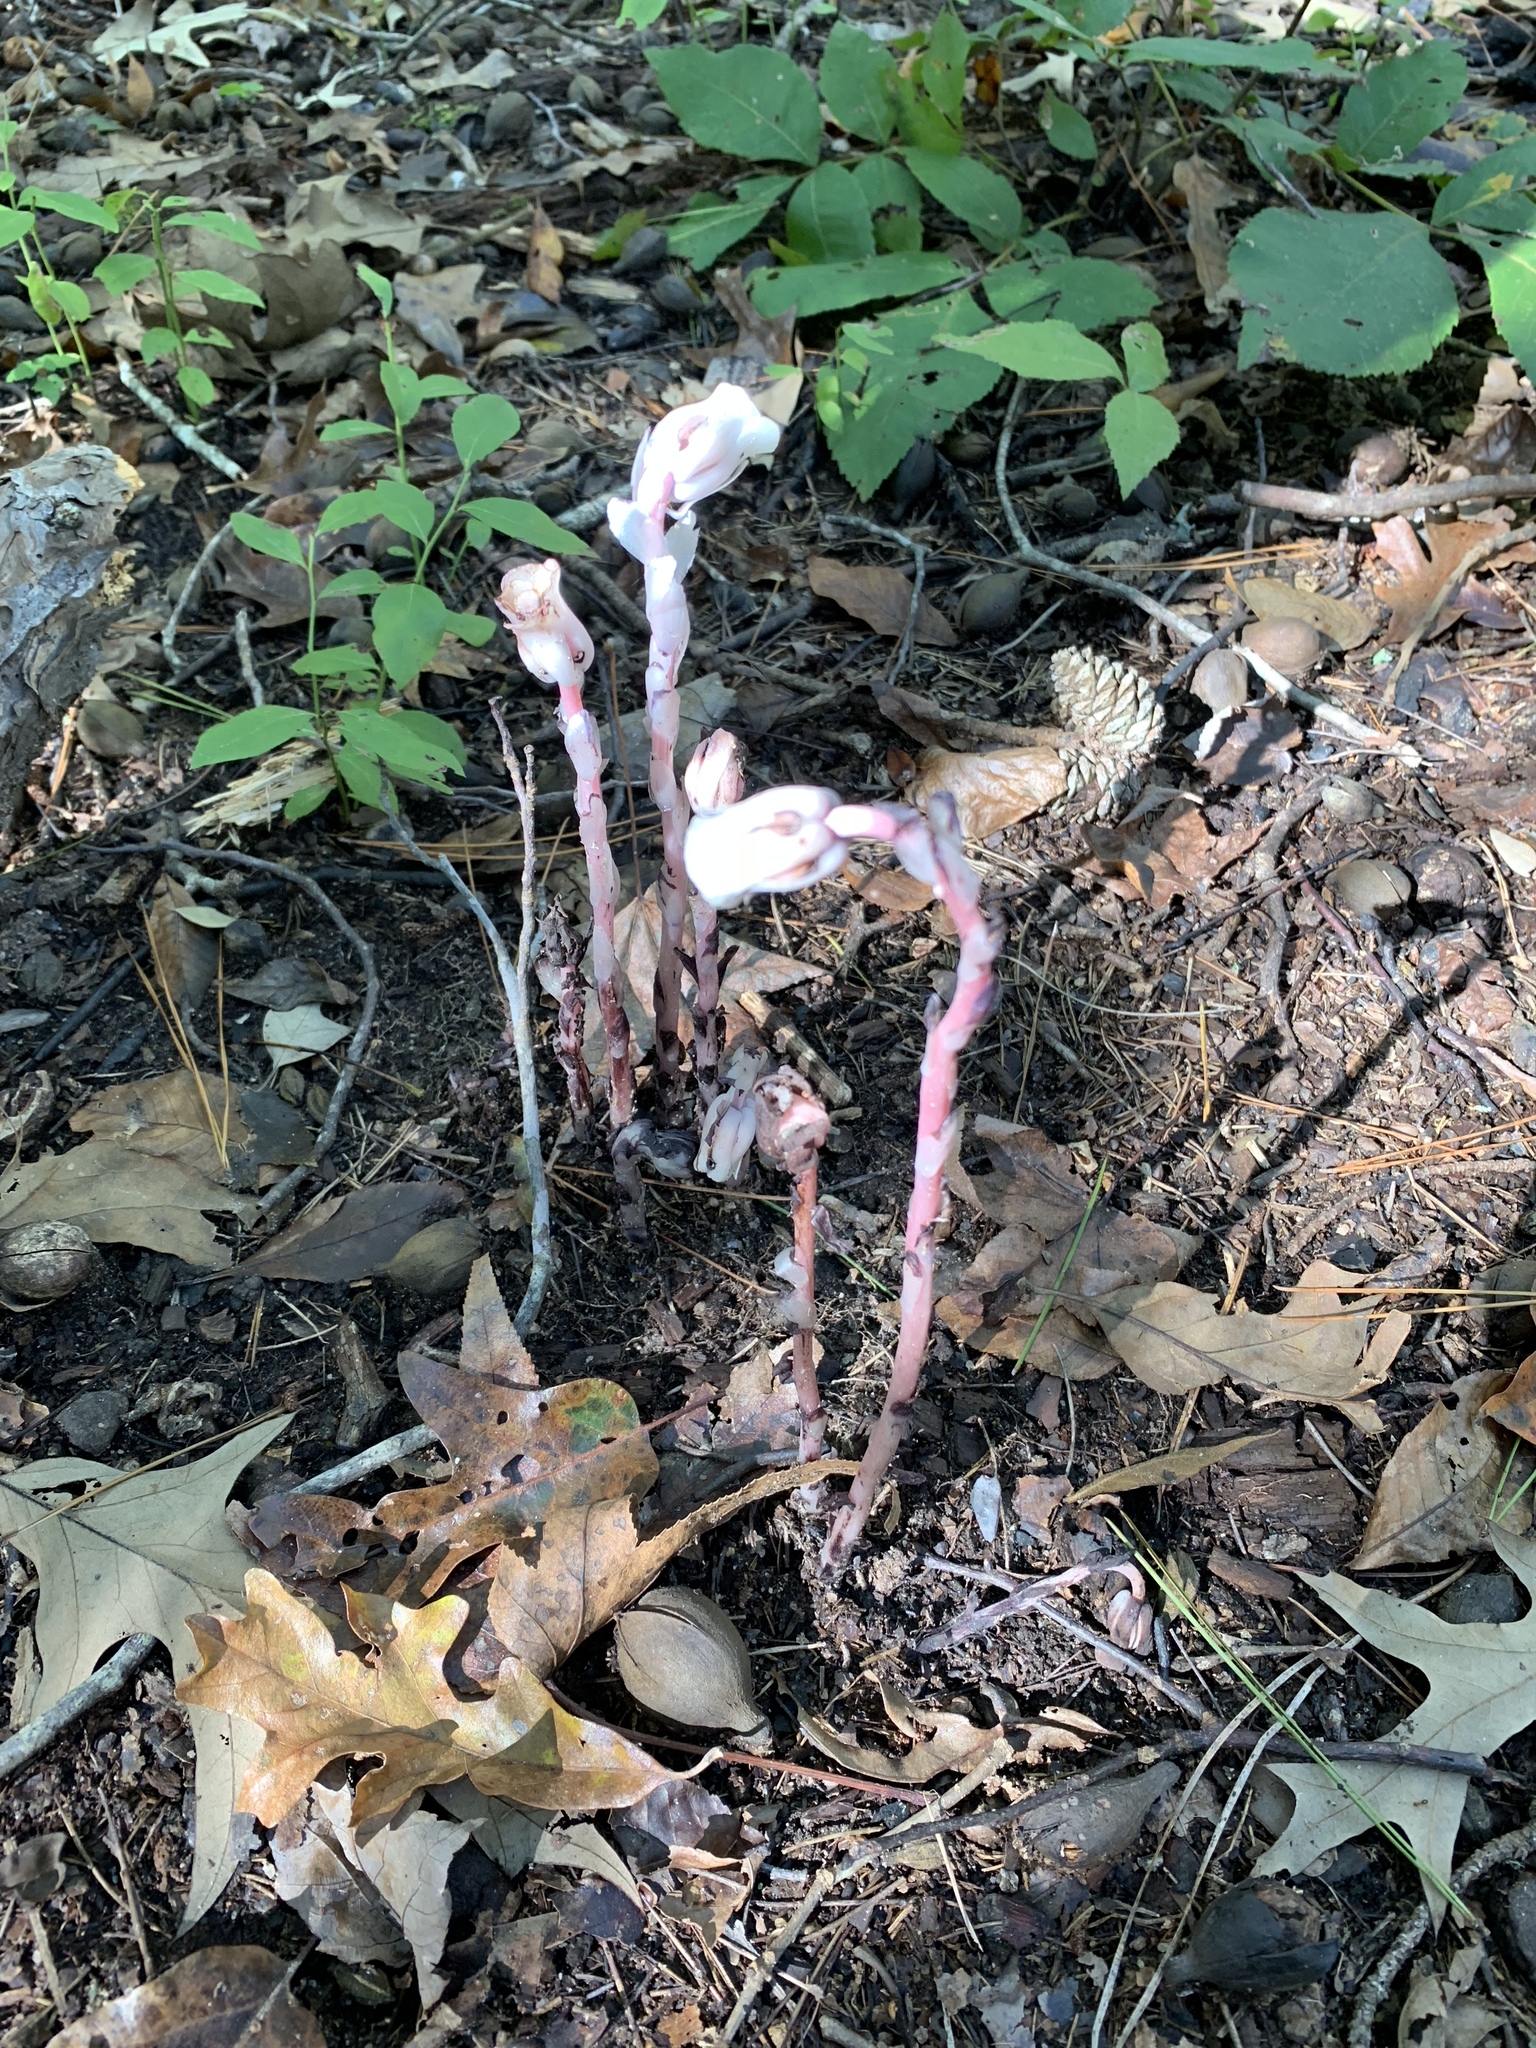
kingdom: Plantae
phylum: Tracheophyta
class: Magnoliopsida
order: Ericales
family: Ericaceae
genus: Monotropa
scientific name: Monotropa uniflora
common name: Convulsion root
